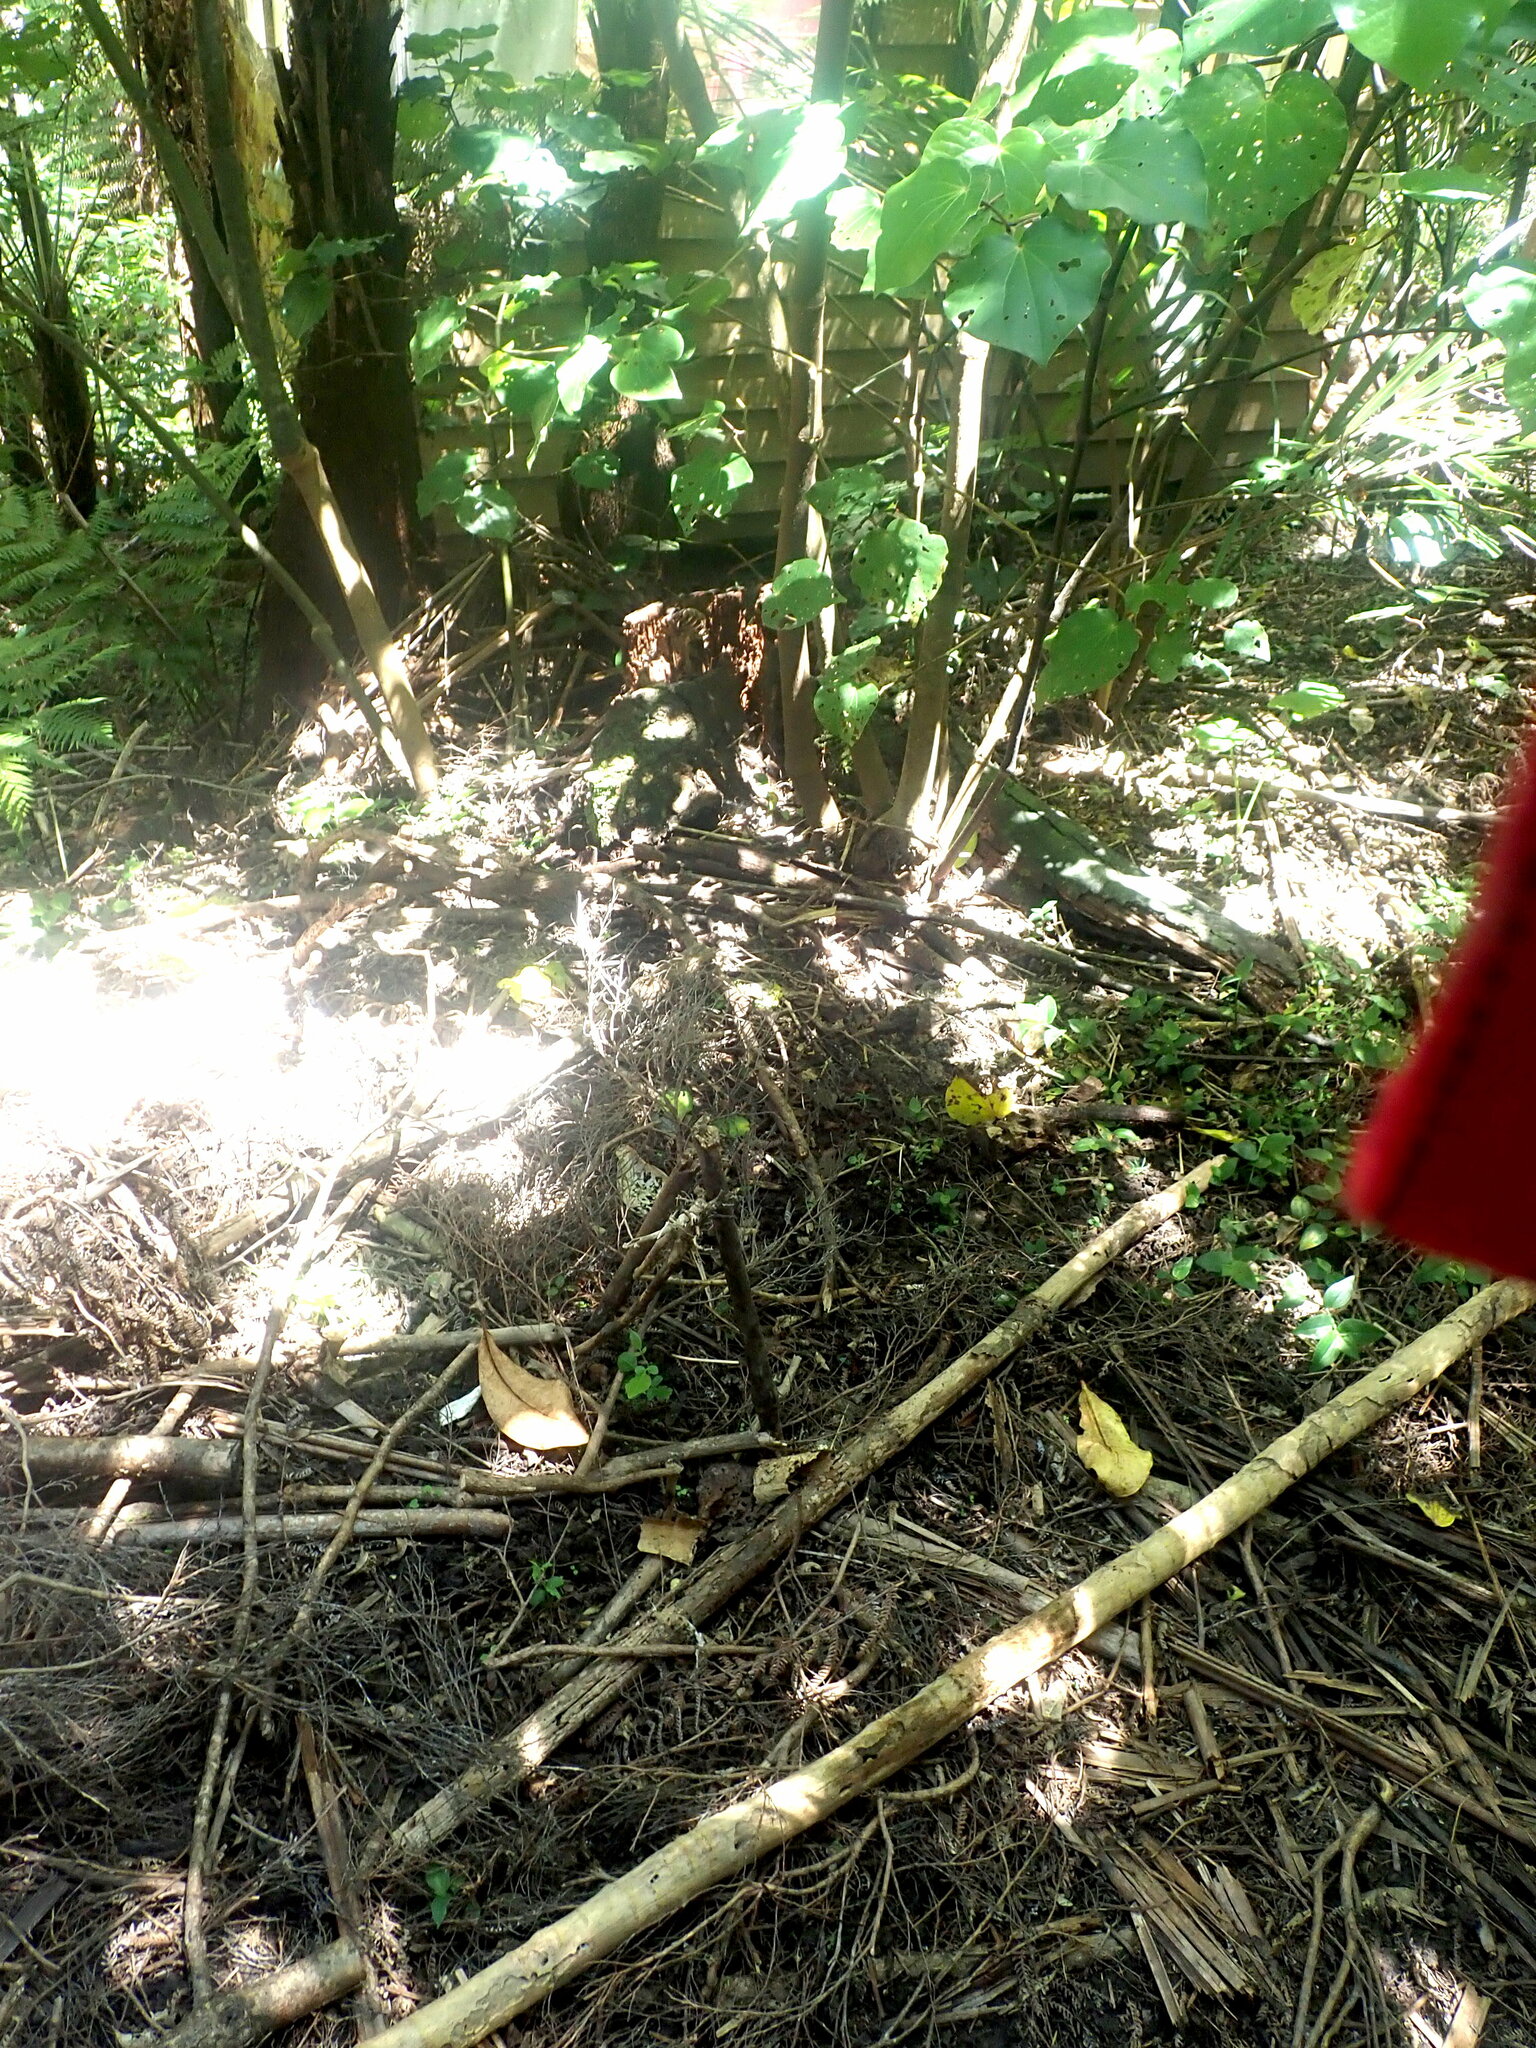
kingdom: Plantae
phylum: Tracheophyta
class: Magnoliopsida
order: Sapindales
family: Meliaceae
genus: Didymocheton
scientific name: Didymocheton spectabilis
